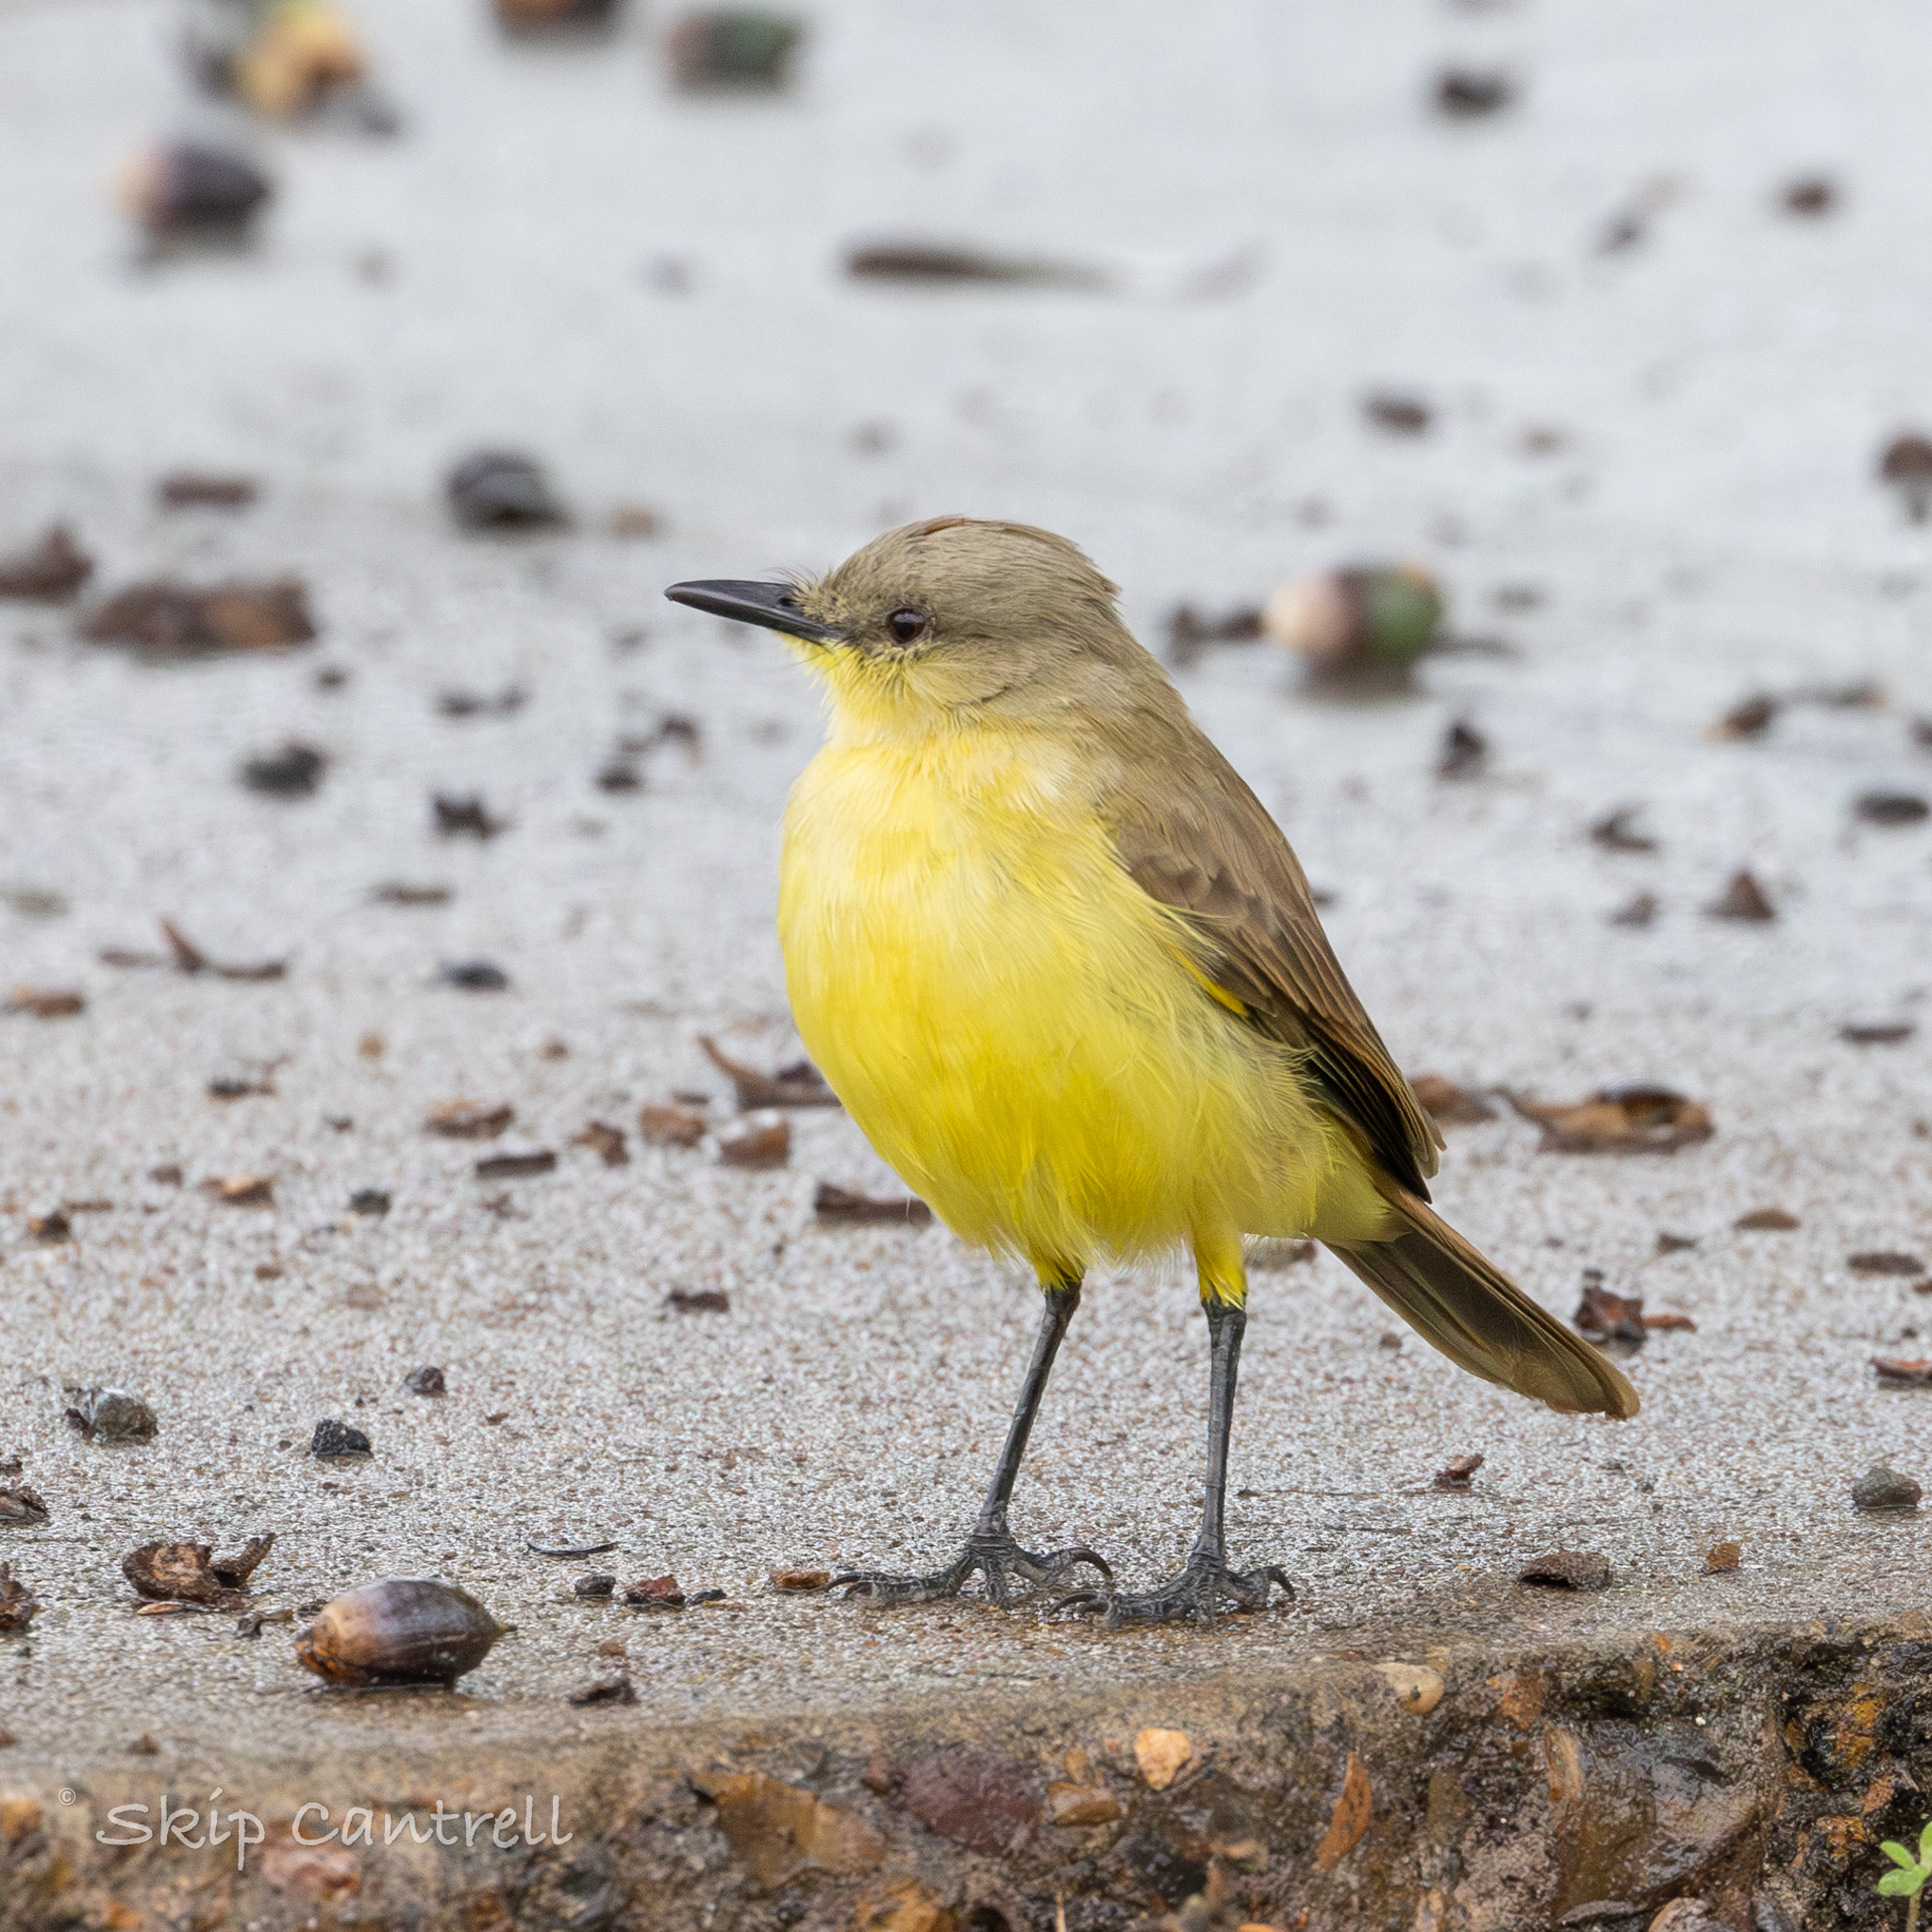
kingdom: Animalia
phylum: Chordata
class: Aves
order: Passeriformes
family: Tyrannidae
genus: Machetornis
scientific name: Machetornis rixosa
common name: Cattle tyrant
